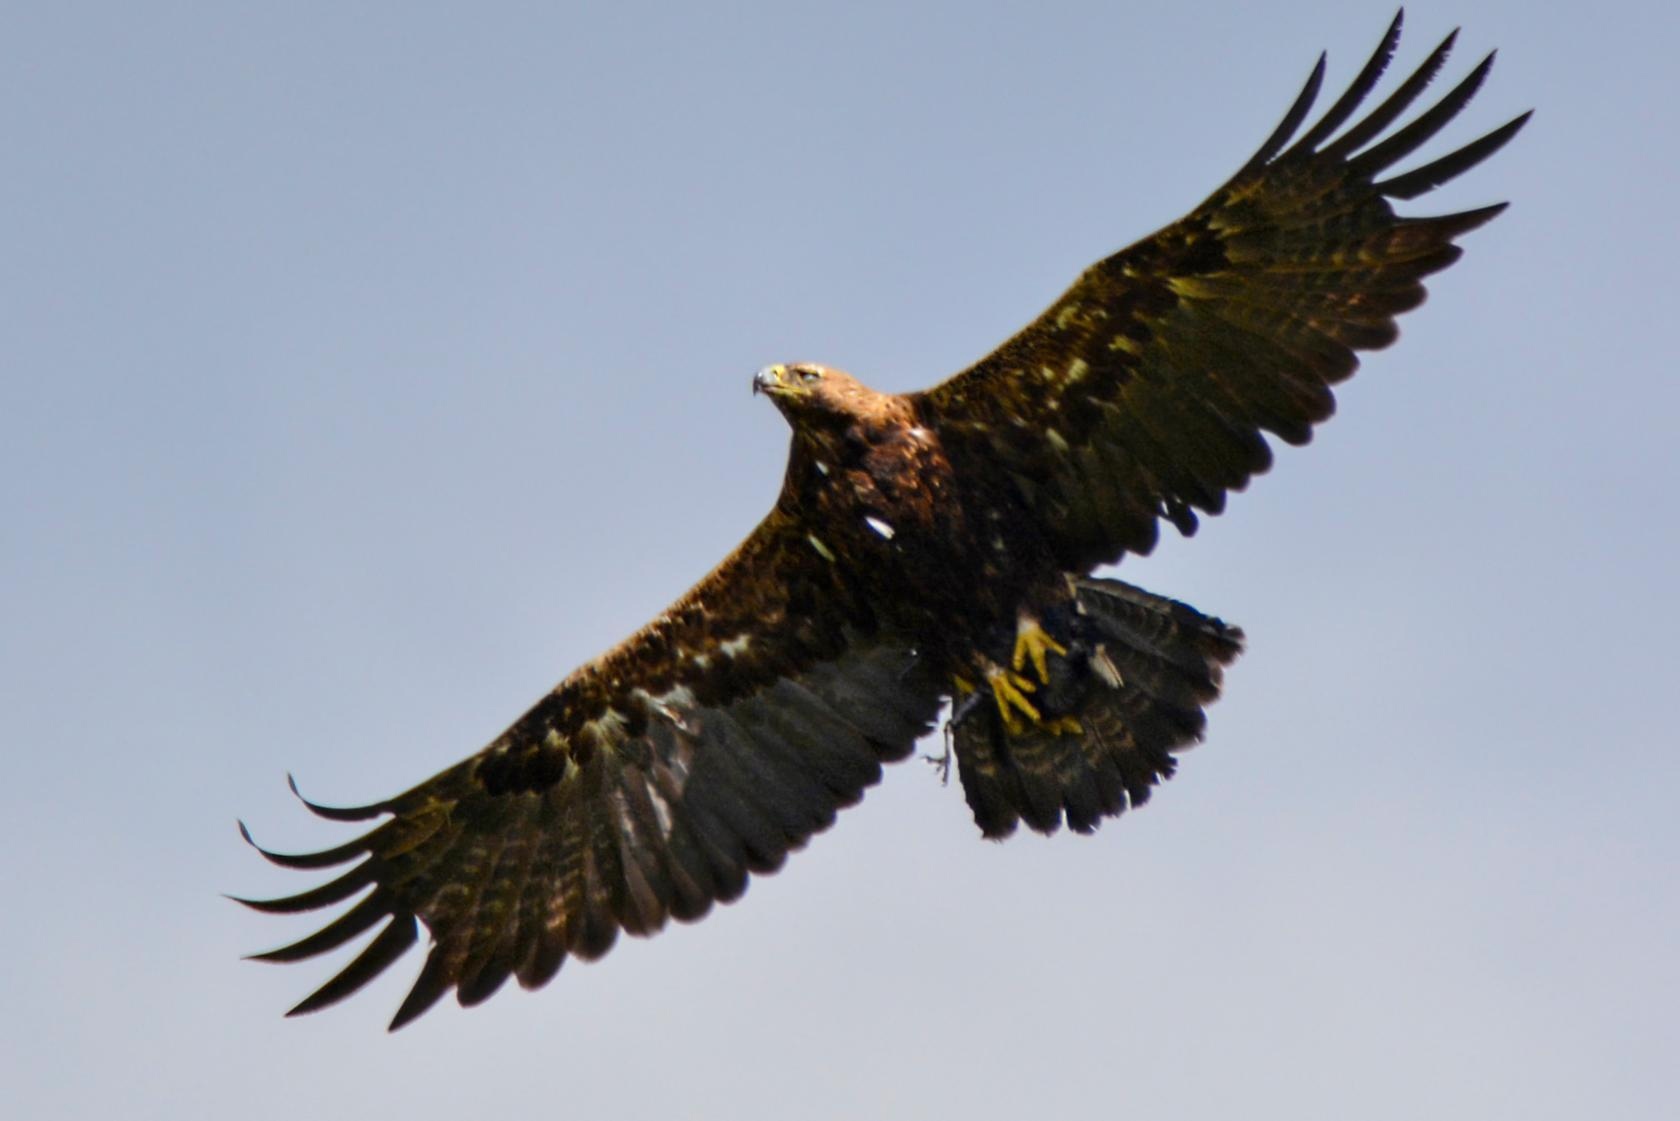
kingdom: Animalia
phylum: Chordata
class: Aves
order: Accipitriformes
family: Accipitridae
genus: Aquila
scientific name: Aquila heliaca
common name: Eastern imperial eagle
